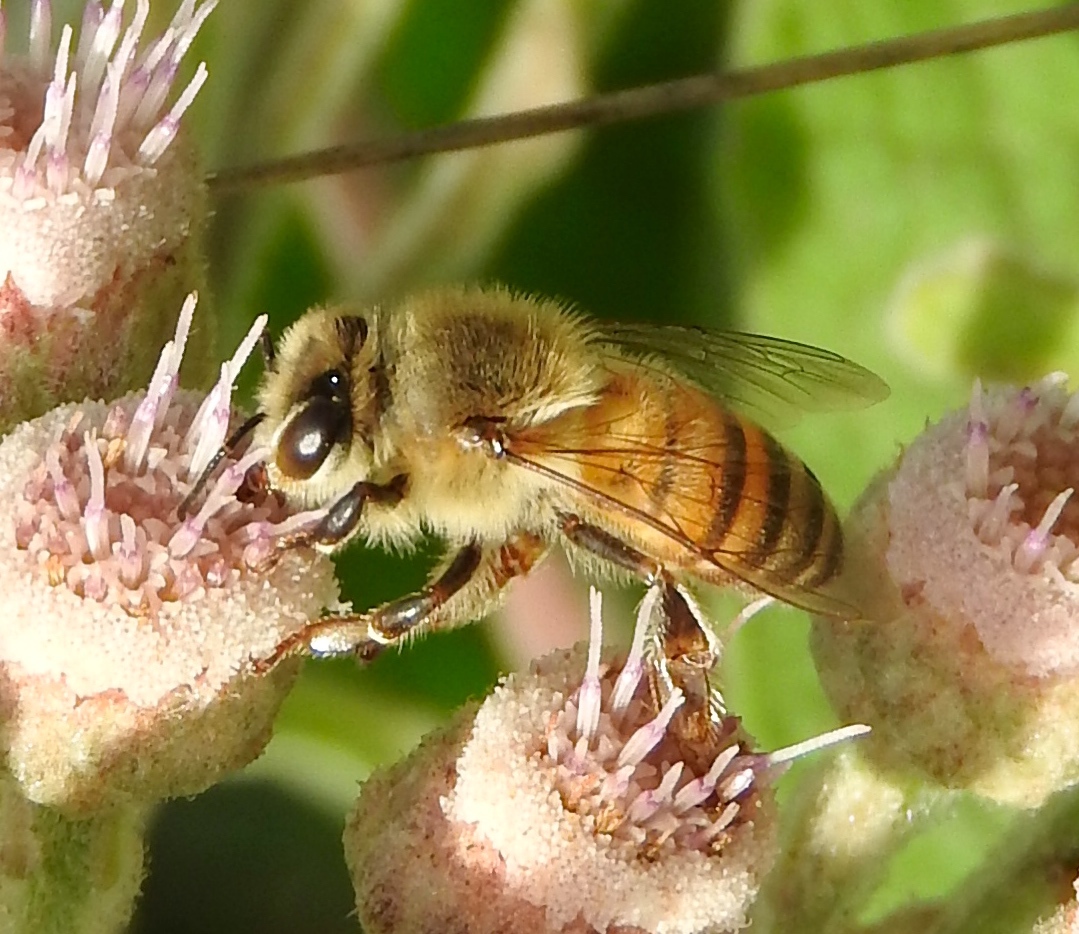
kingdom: Animalia
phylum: Arthropoda
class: Insecta
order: Hymenoptera
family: Apidae
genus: Apis
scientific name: Apis mellifera
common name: Honey bee
